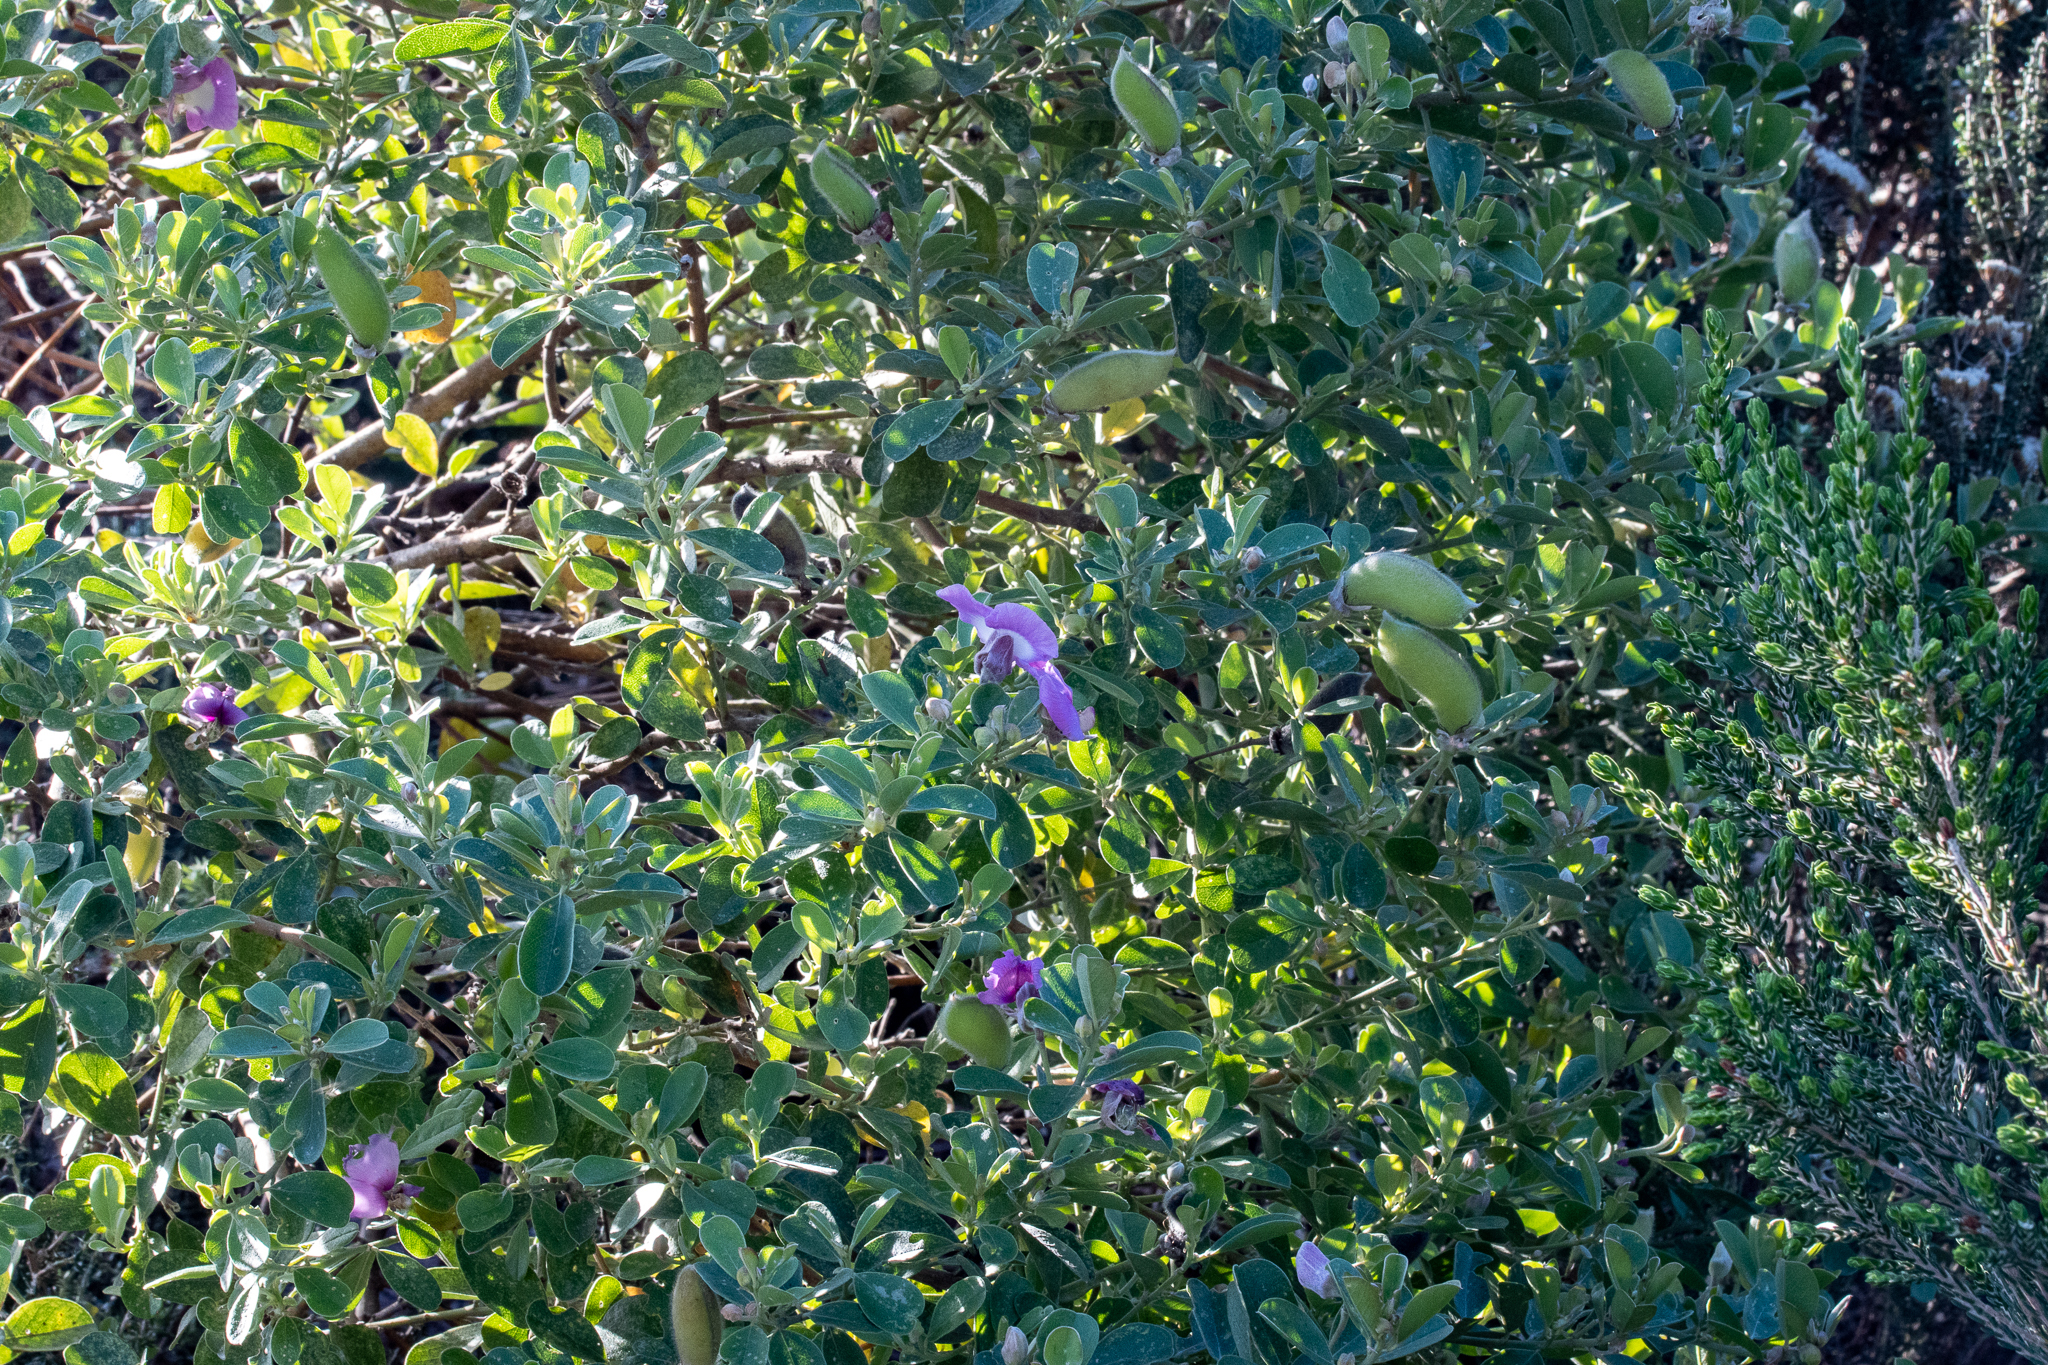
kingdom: Plantae
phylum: Tracheophyta
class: Magnoliopsida
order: Fabales
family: Fabaceae
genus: Podalyria
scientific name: Podalyria calyptrata
